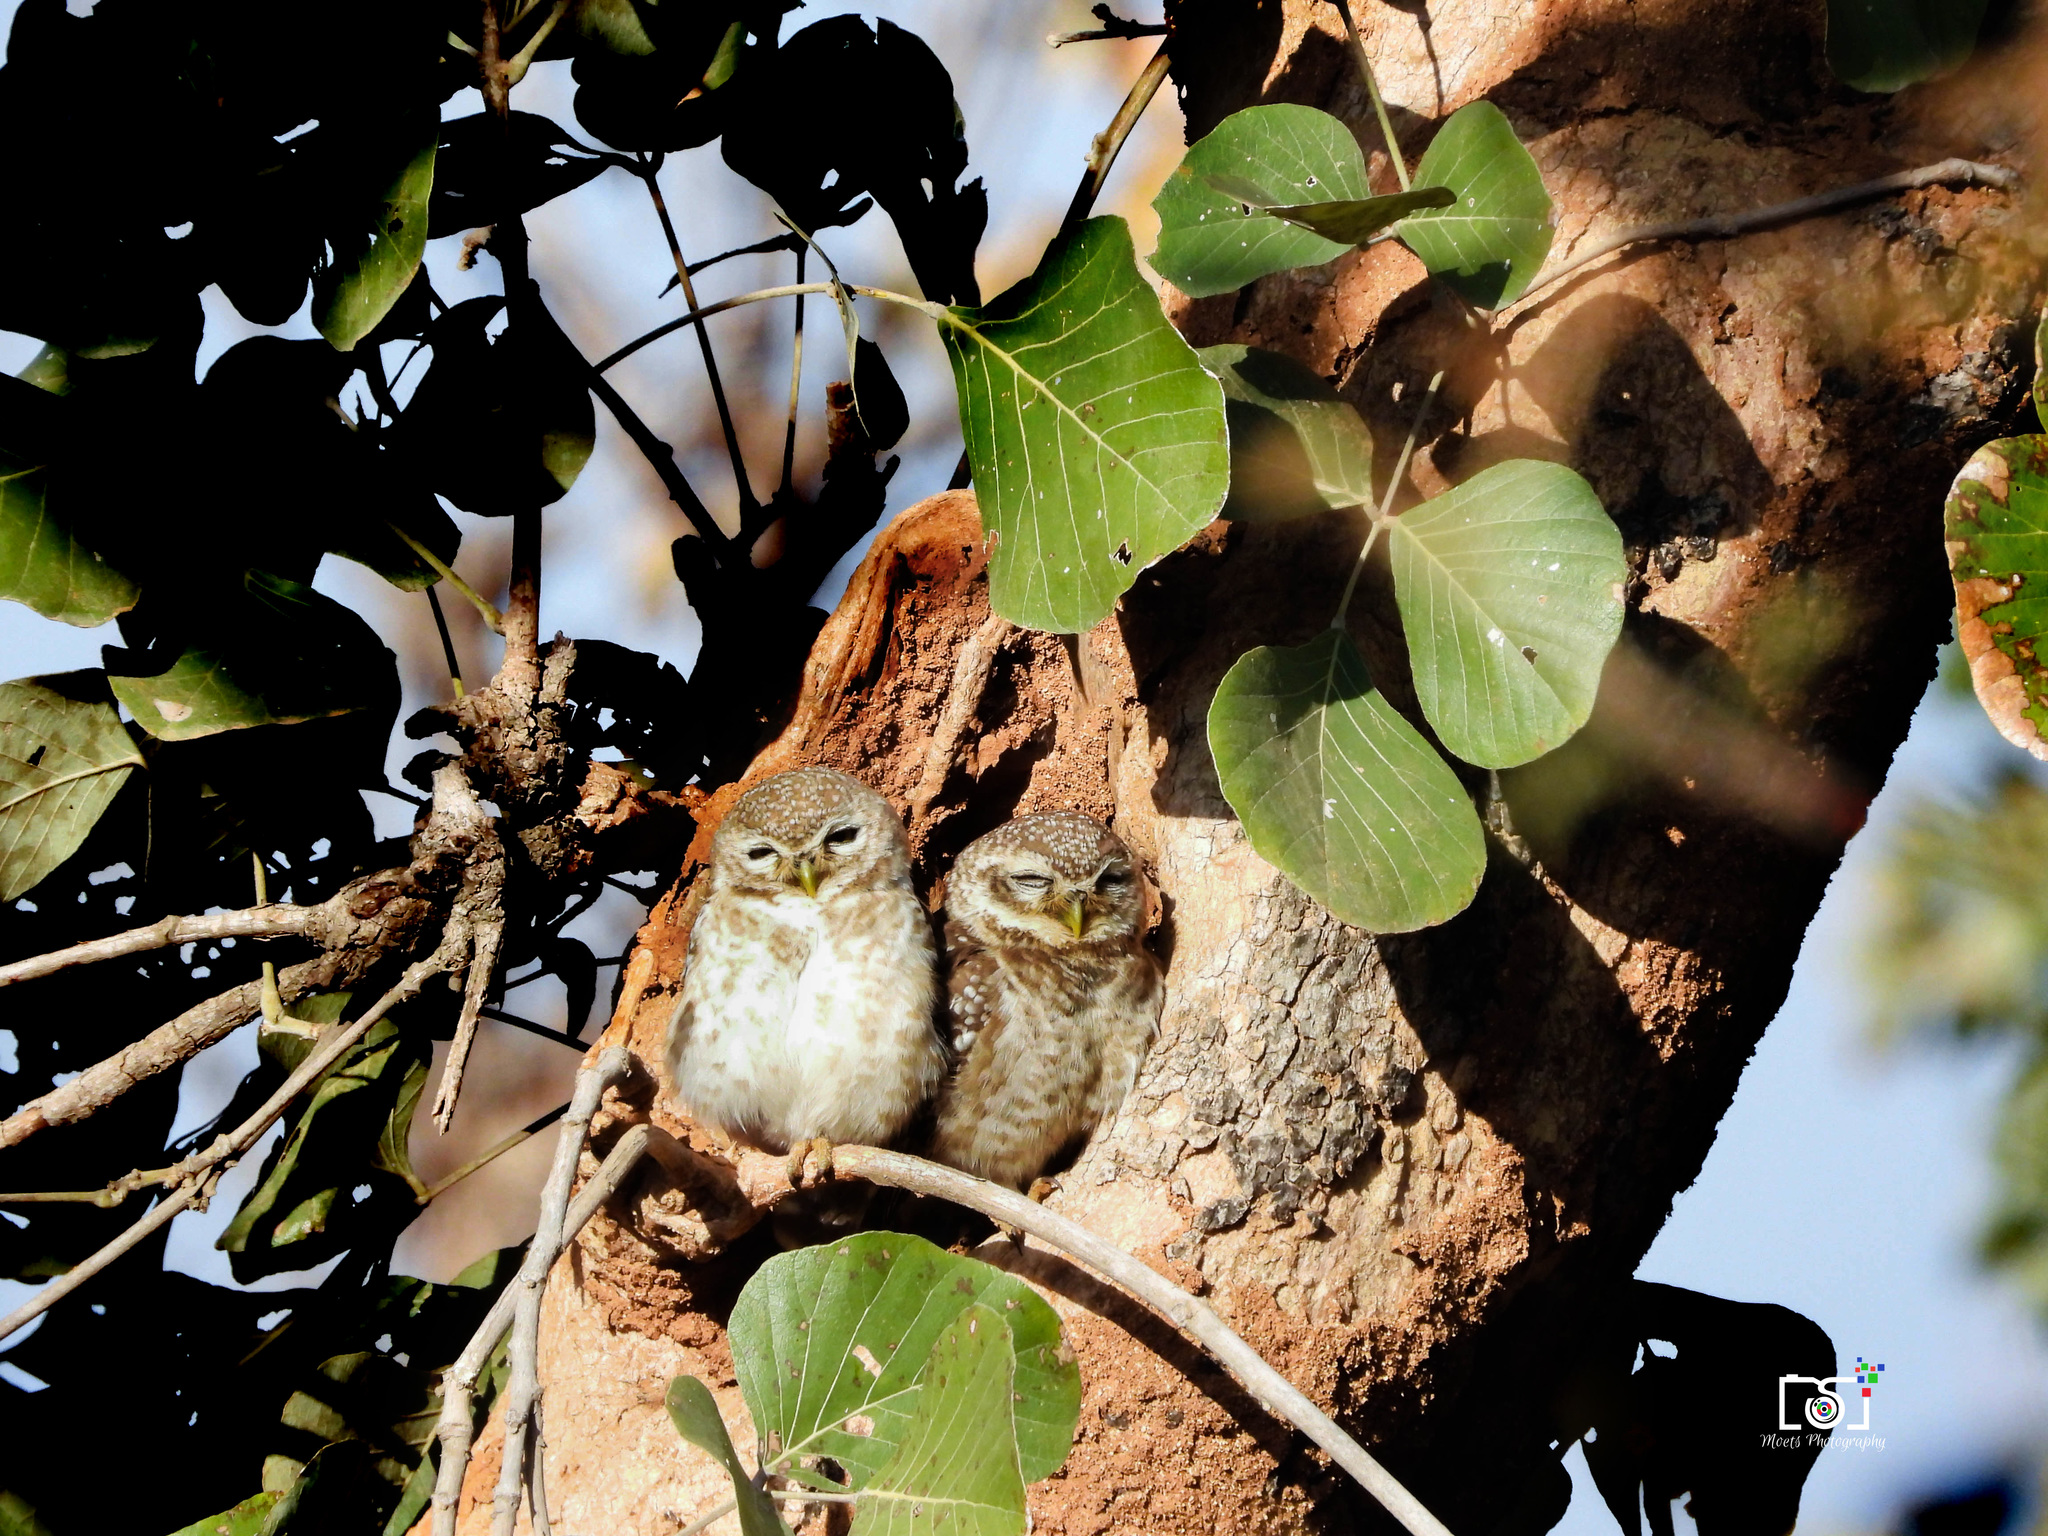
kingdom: Animalia
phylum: Chordata
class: Aves
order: Strigiformes
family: Strigidae
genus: Athene
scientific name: Athene brama
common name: Spotted owlet
